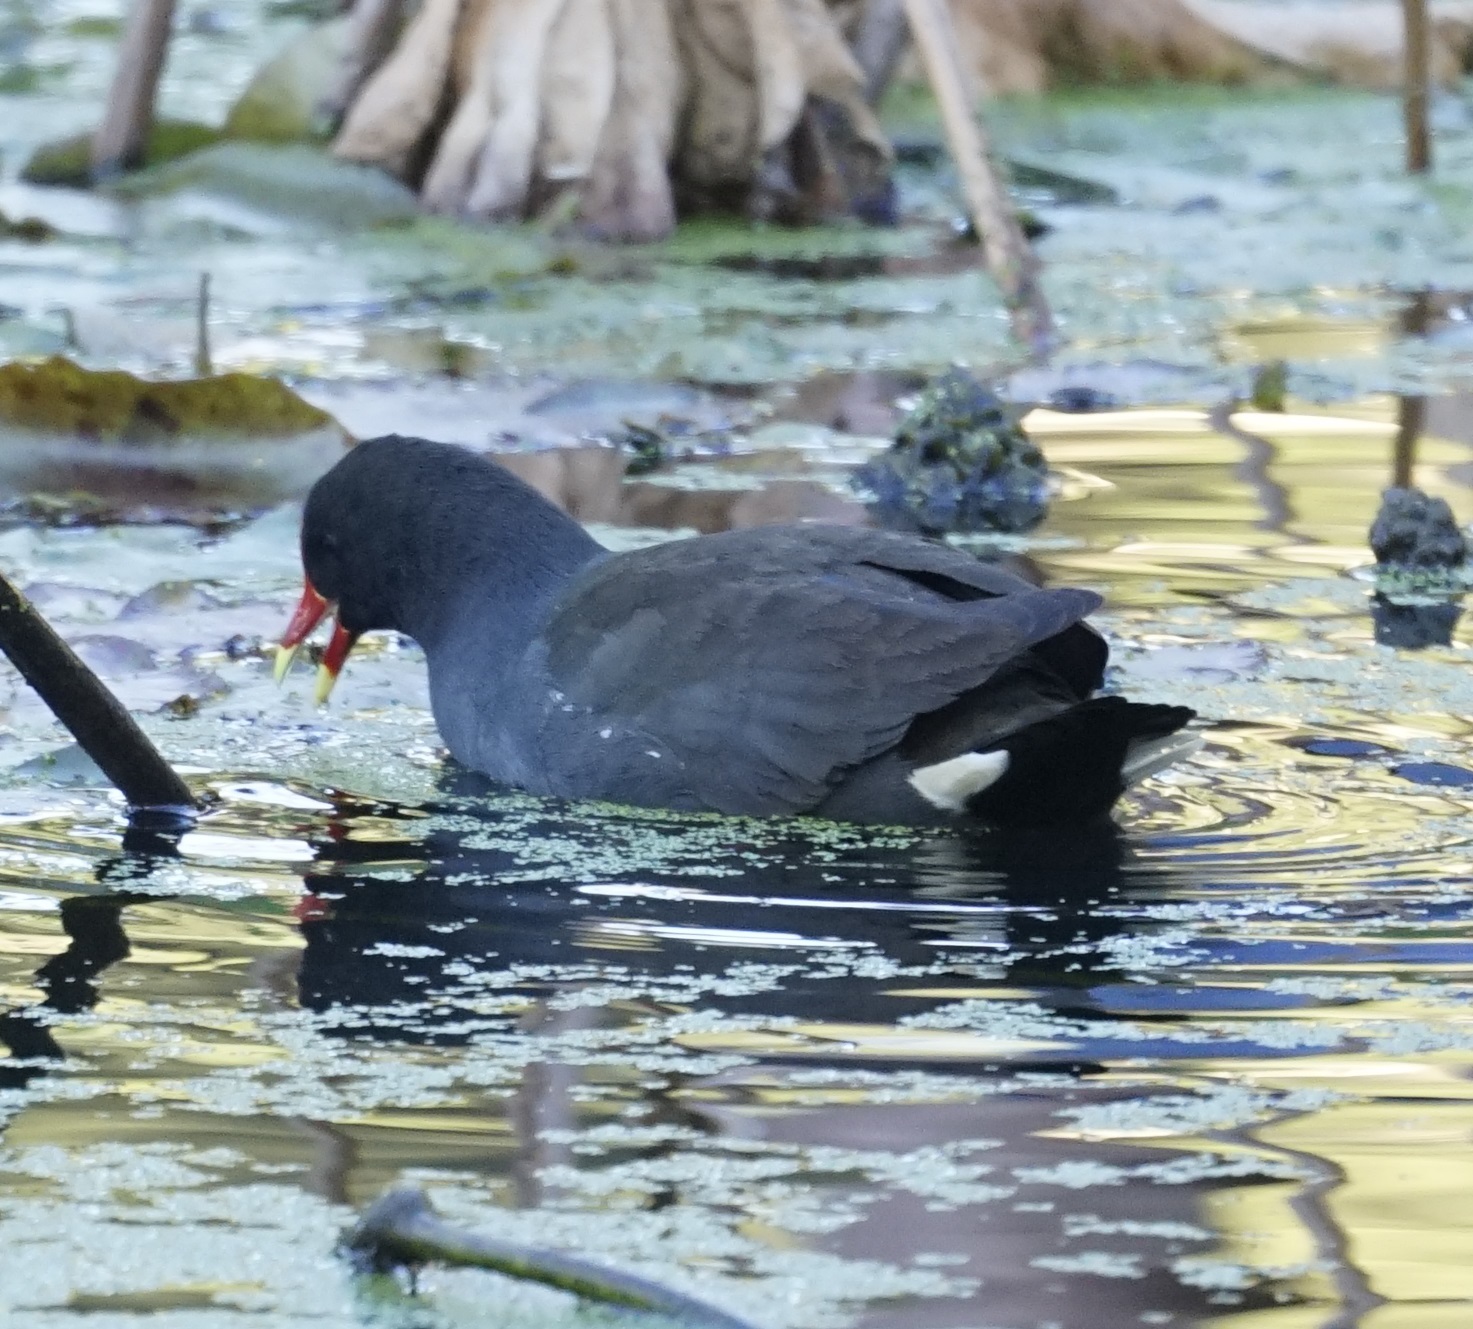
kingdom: Animalia
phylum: Chordata
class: Aves
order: Gruiformes
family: Rallidae
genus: Gallinula
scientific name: Gallinula tenebrosa
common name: Dusky moorhen
